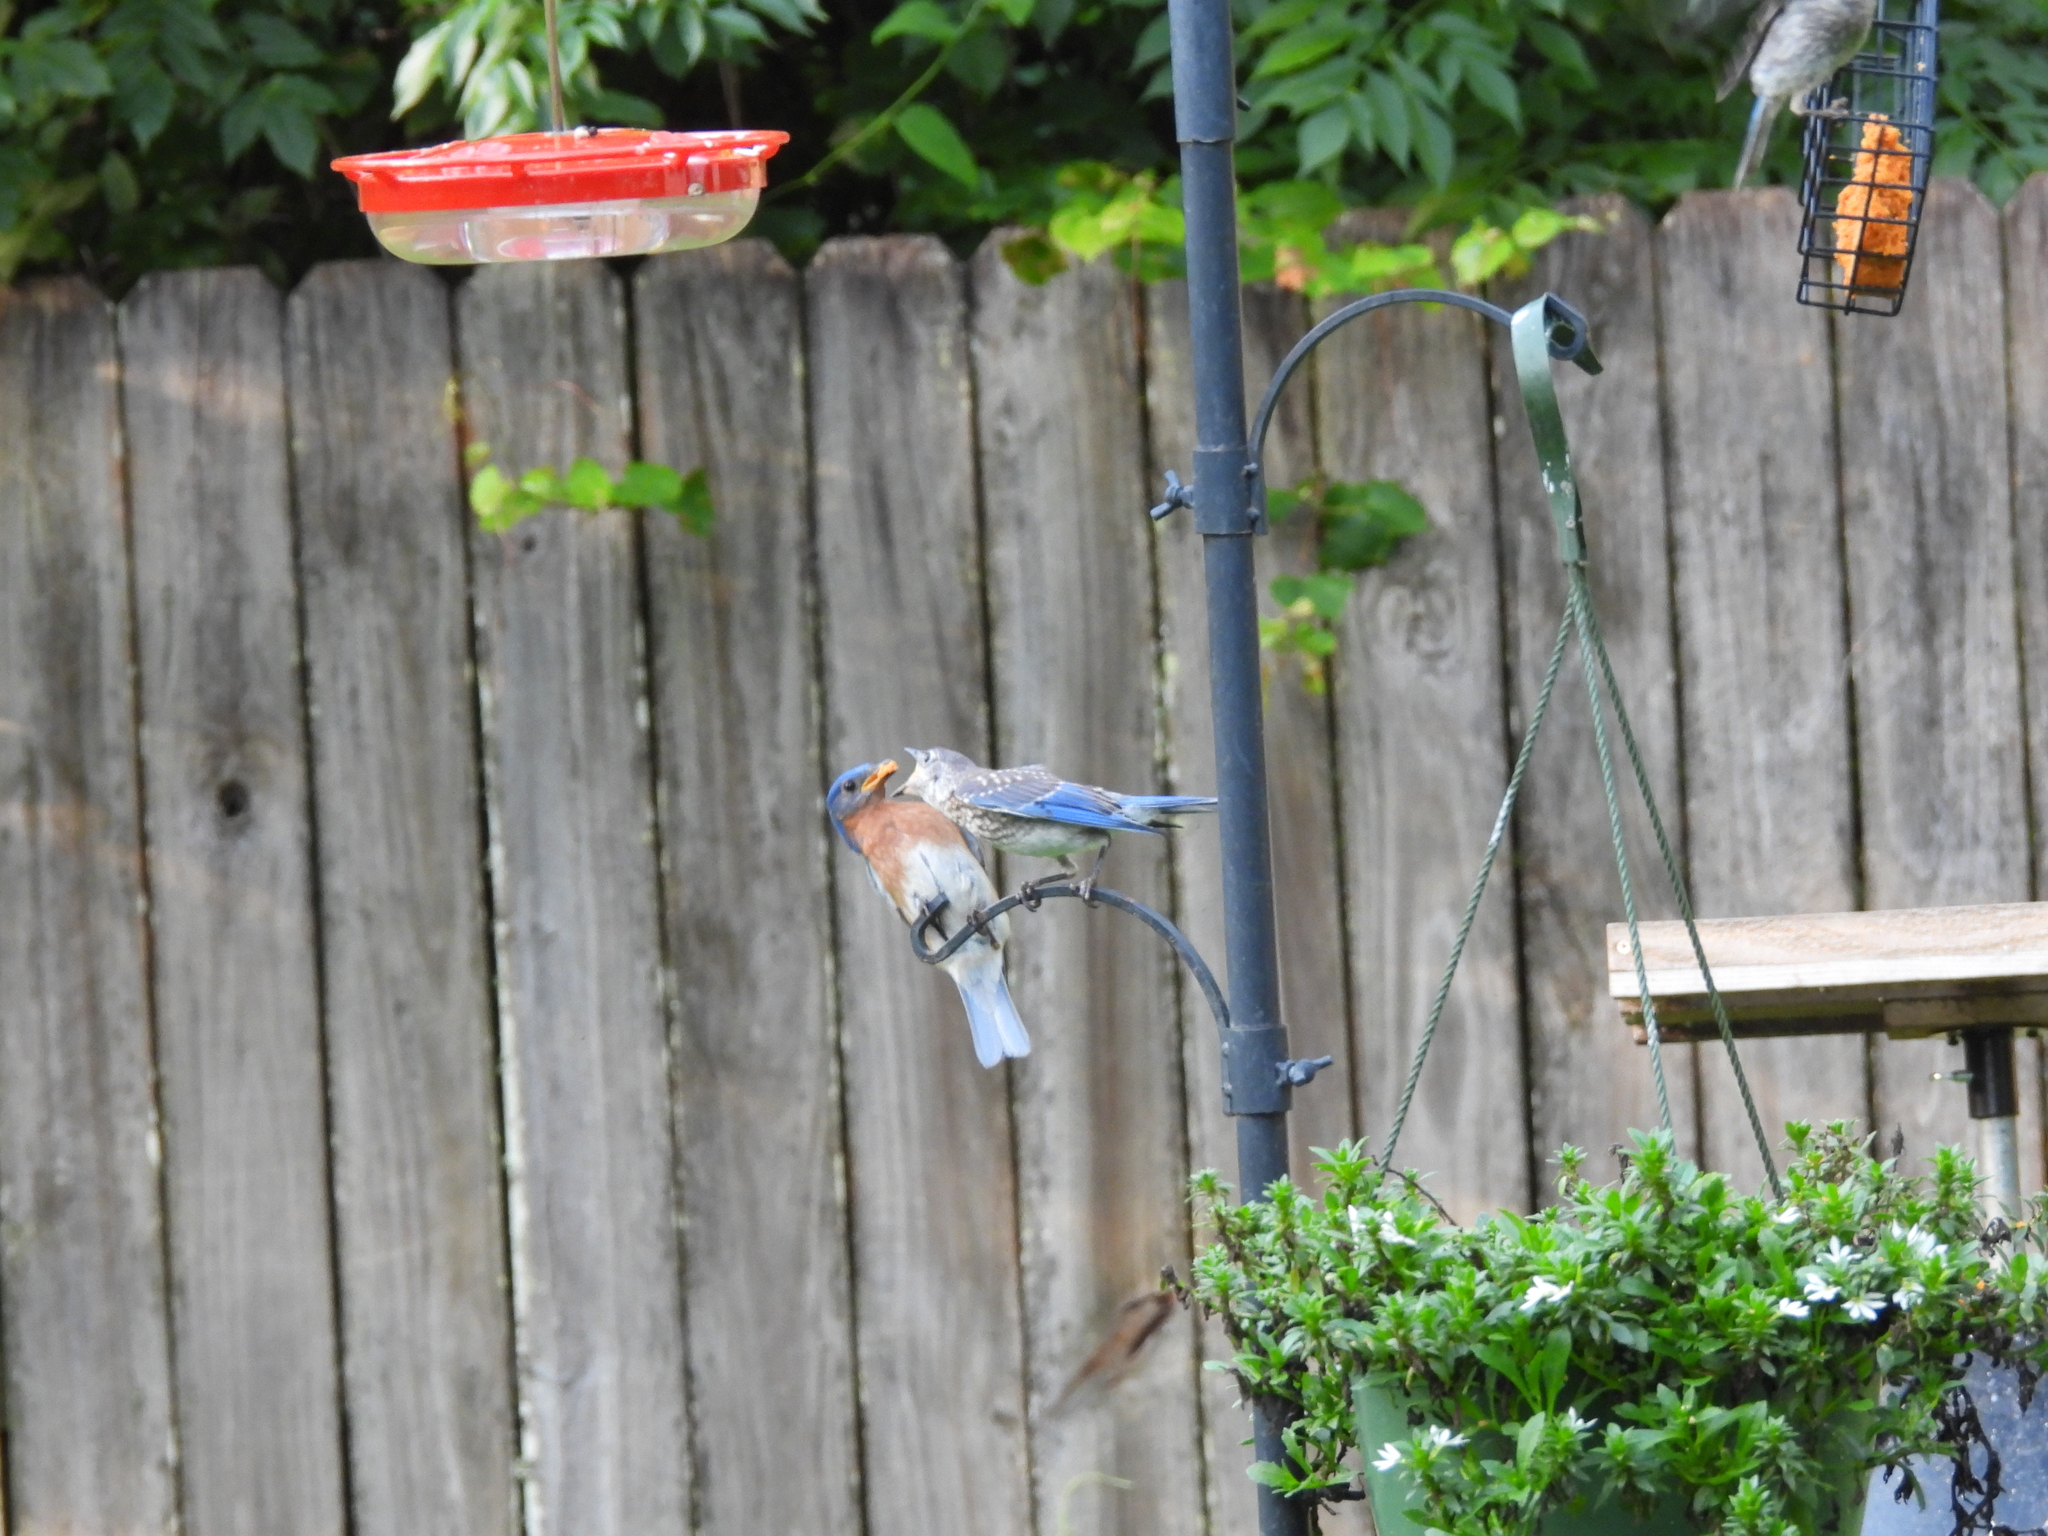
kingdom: Animalia
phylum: Chordata
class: Aves
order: Passeriformes
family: Turdidae
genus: Sialia
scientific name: Sialia sialis
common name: Eastern bluebird
